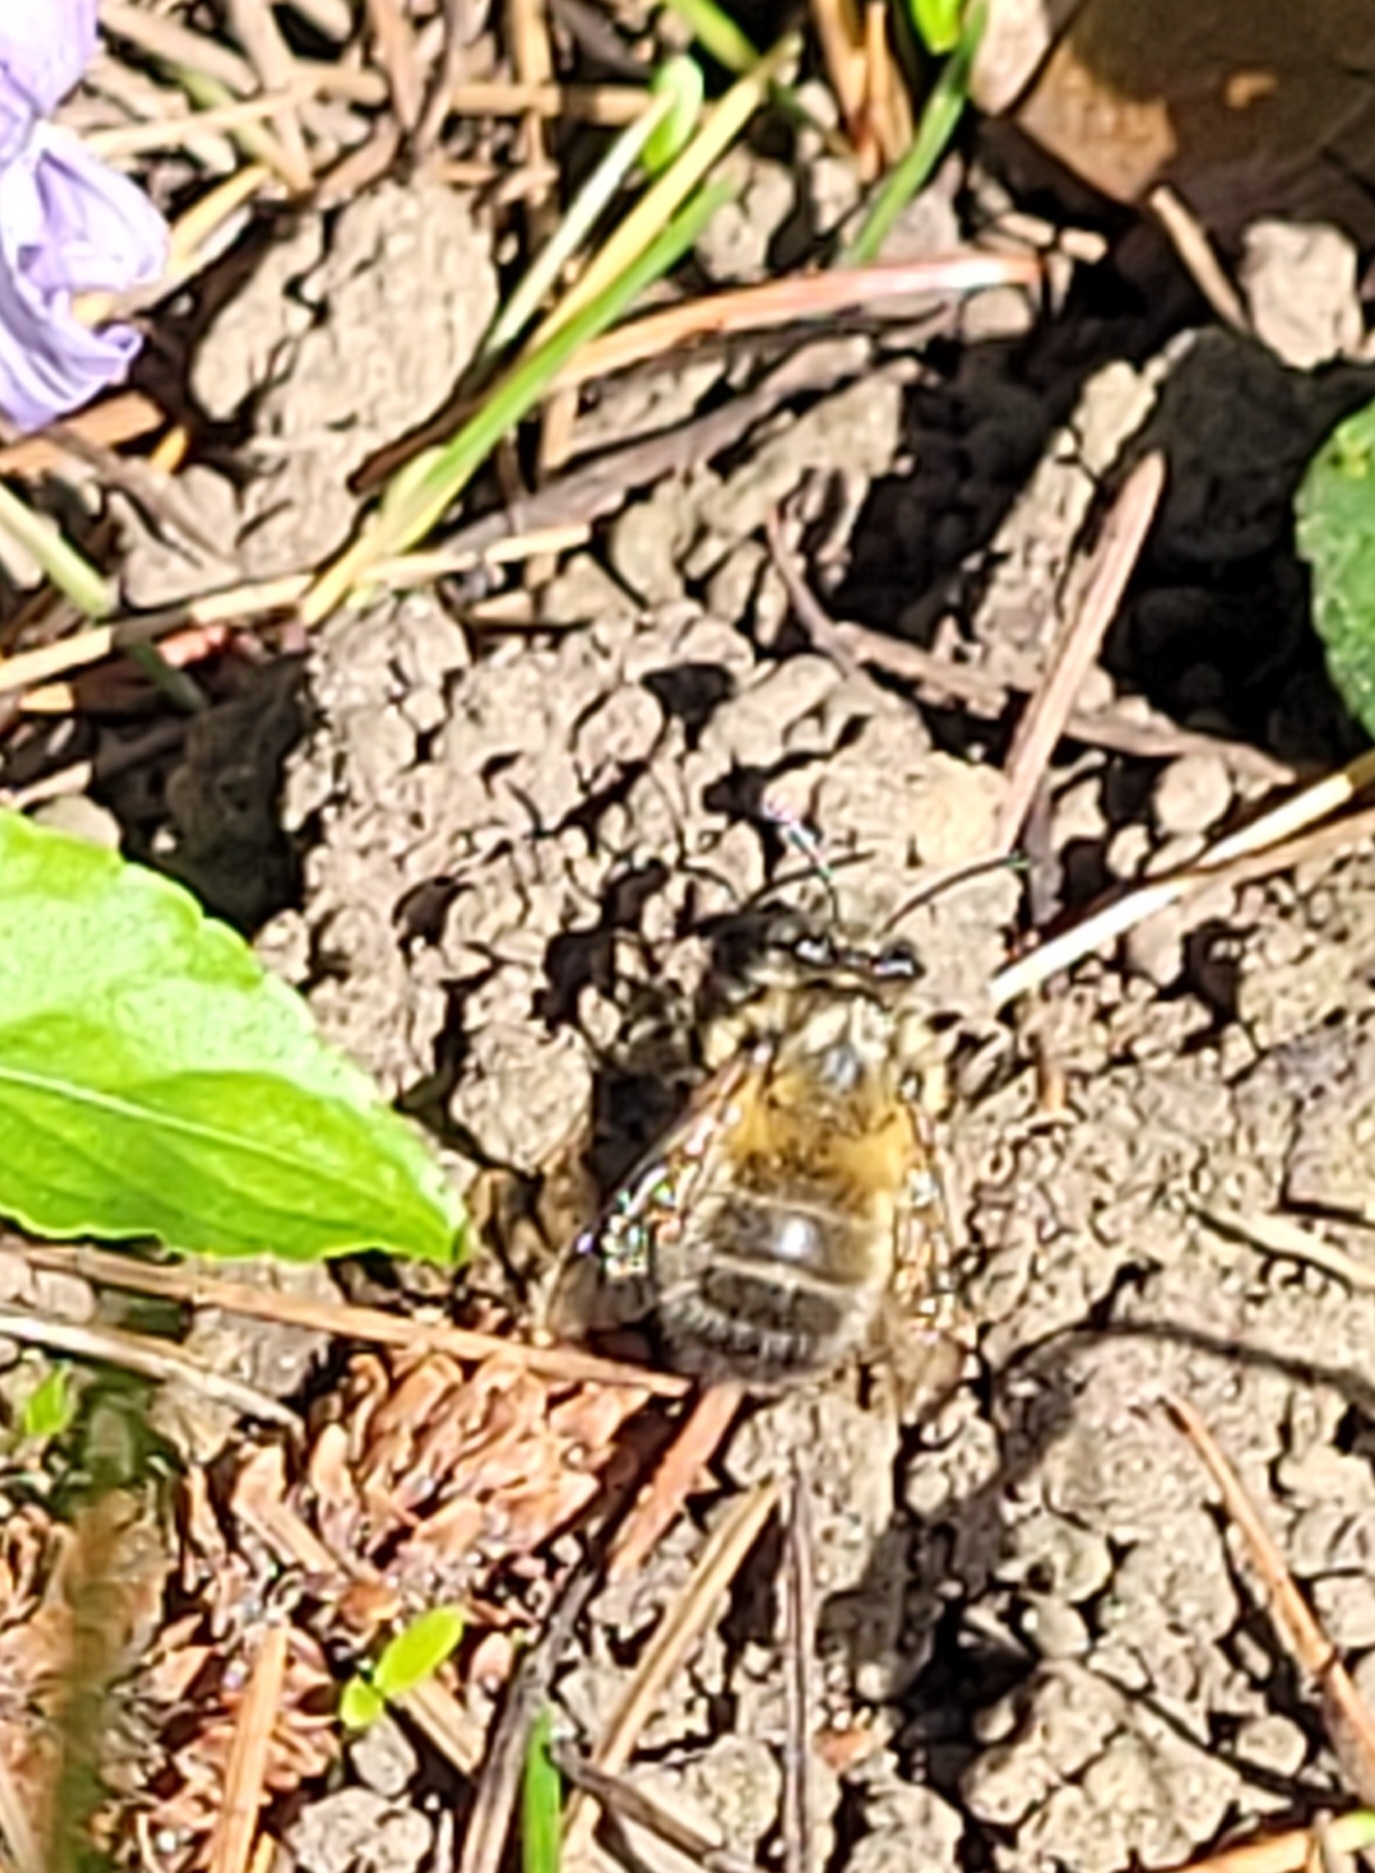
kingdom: Animalia
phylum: Arthropoda
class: Insecta
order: Hymenoptera
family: Apidae
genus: Anthophora
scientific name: Anthophora plumipes
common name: Hairy-footed flower bee
